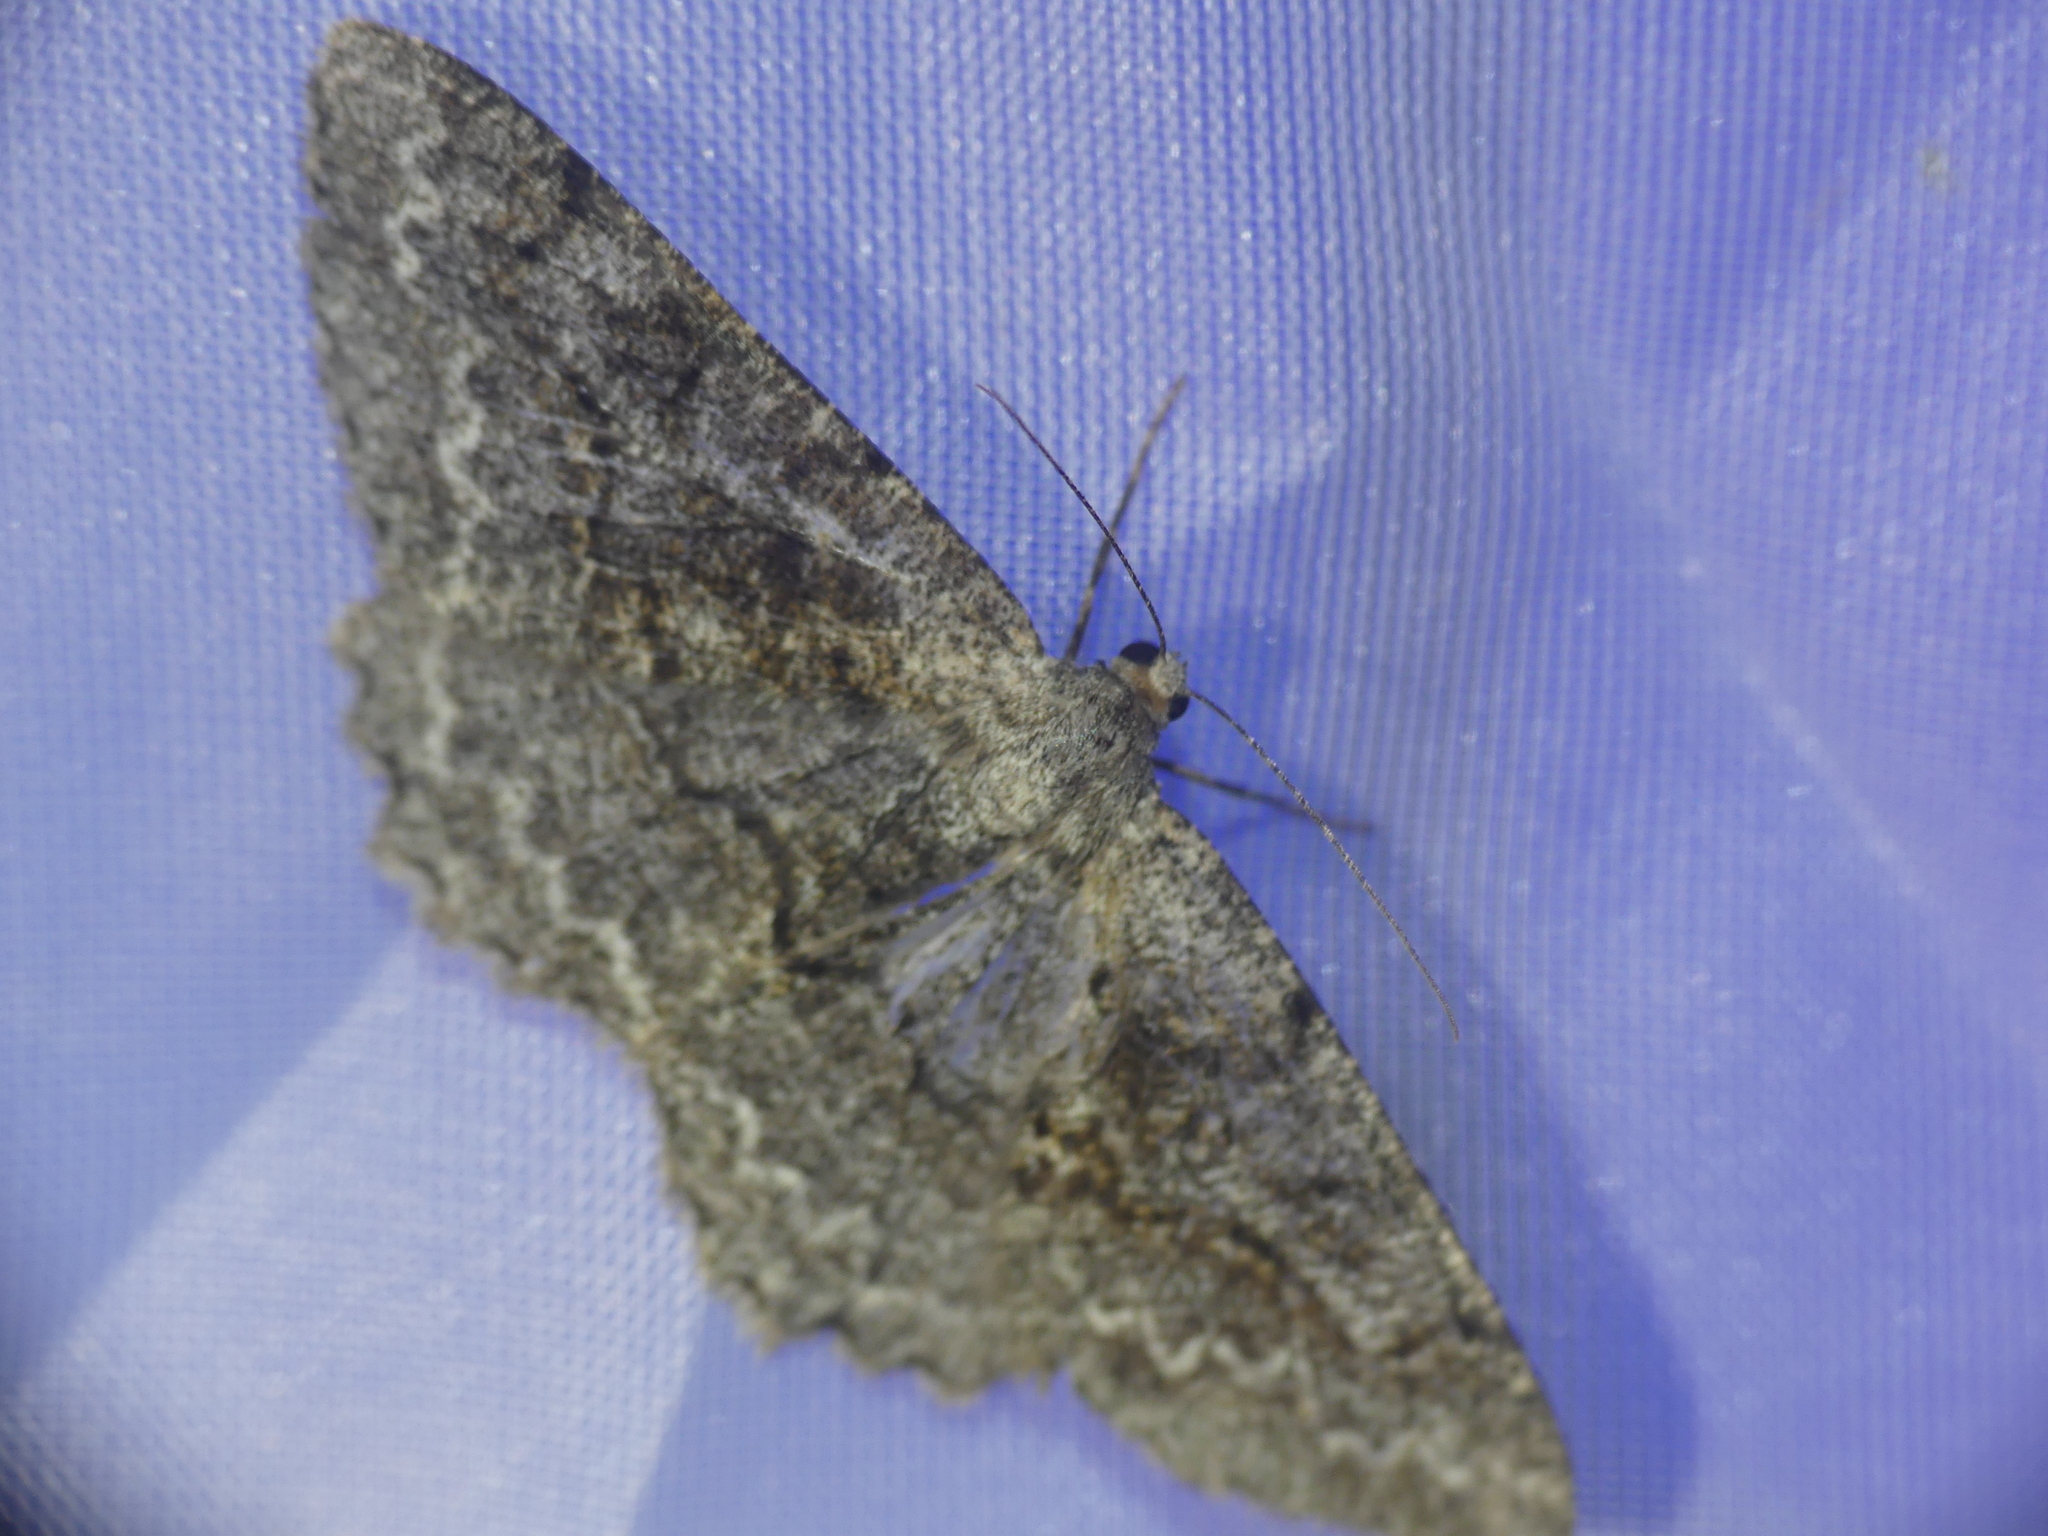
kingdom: Animalia
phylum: Arthropoda
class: Insecta
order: Lepidoptera
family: Geometridae
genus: Alcis
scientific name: Alcis repandata
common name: Mottled beauty
